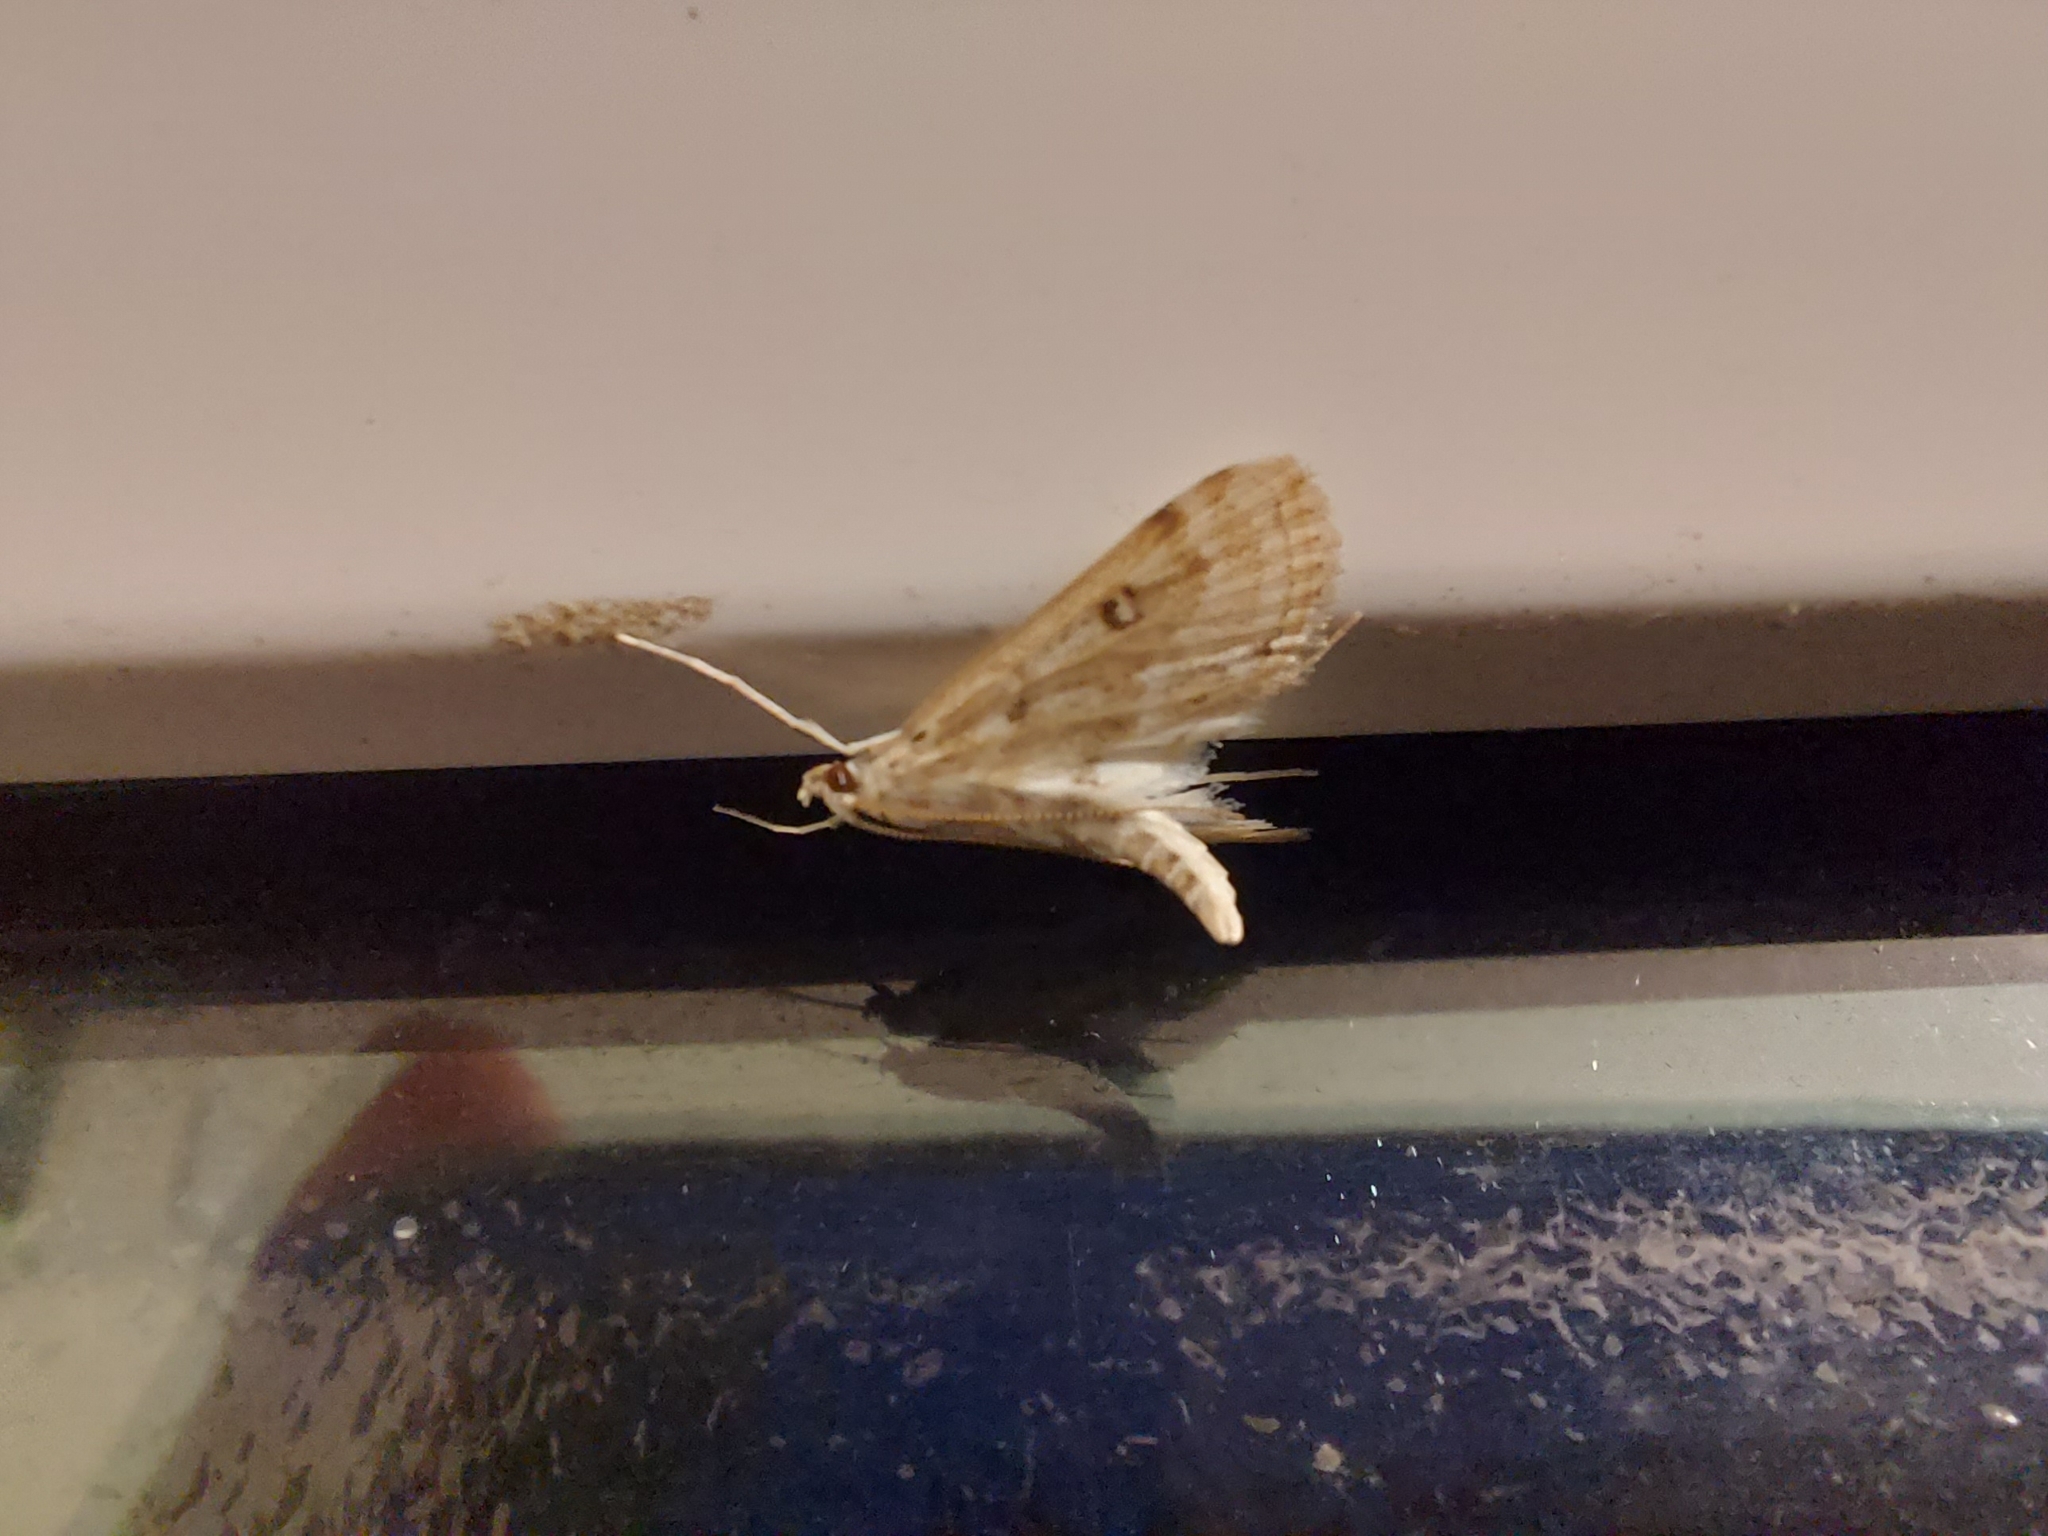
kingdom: Animalia
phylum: Arthropoda
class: Insecta
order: Lepidoptera
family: Crambidae
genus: Parapoynx
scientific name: Parapoynx stratiotata
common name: Ringed china-mark
